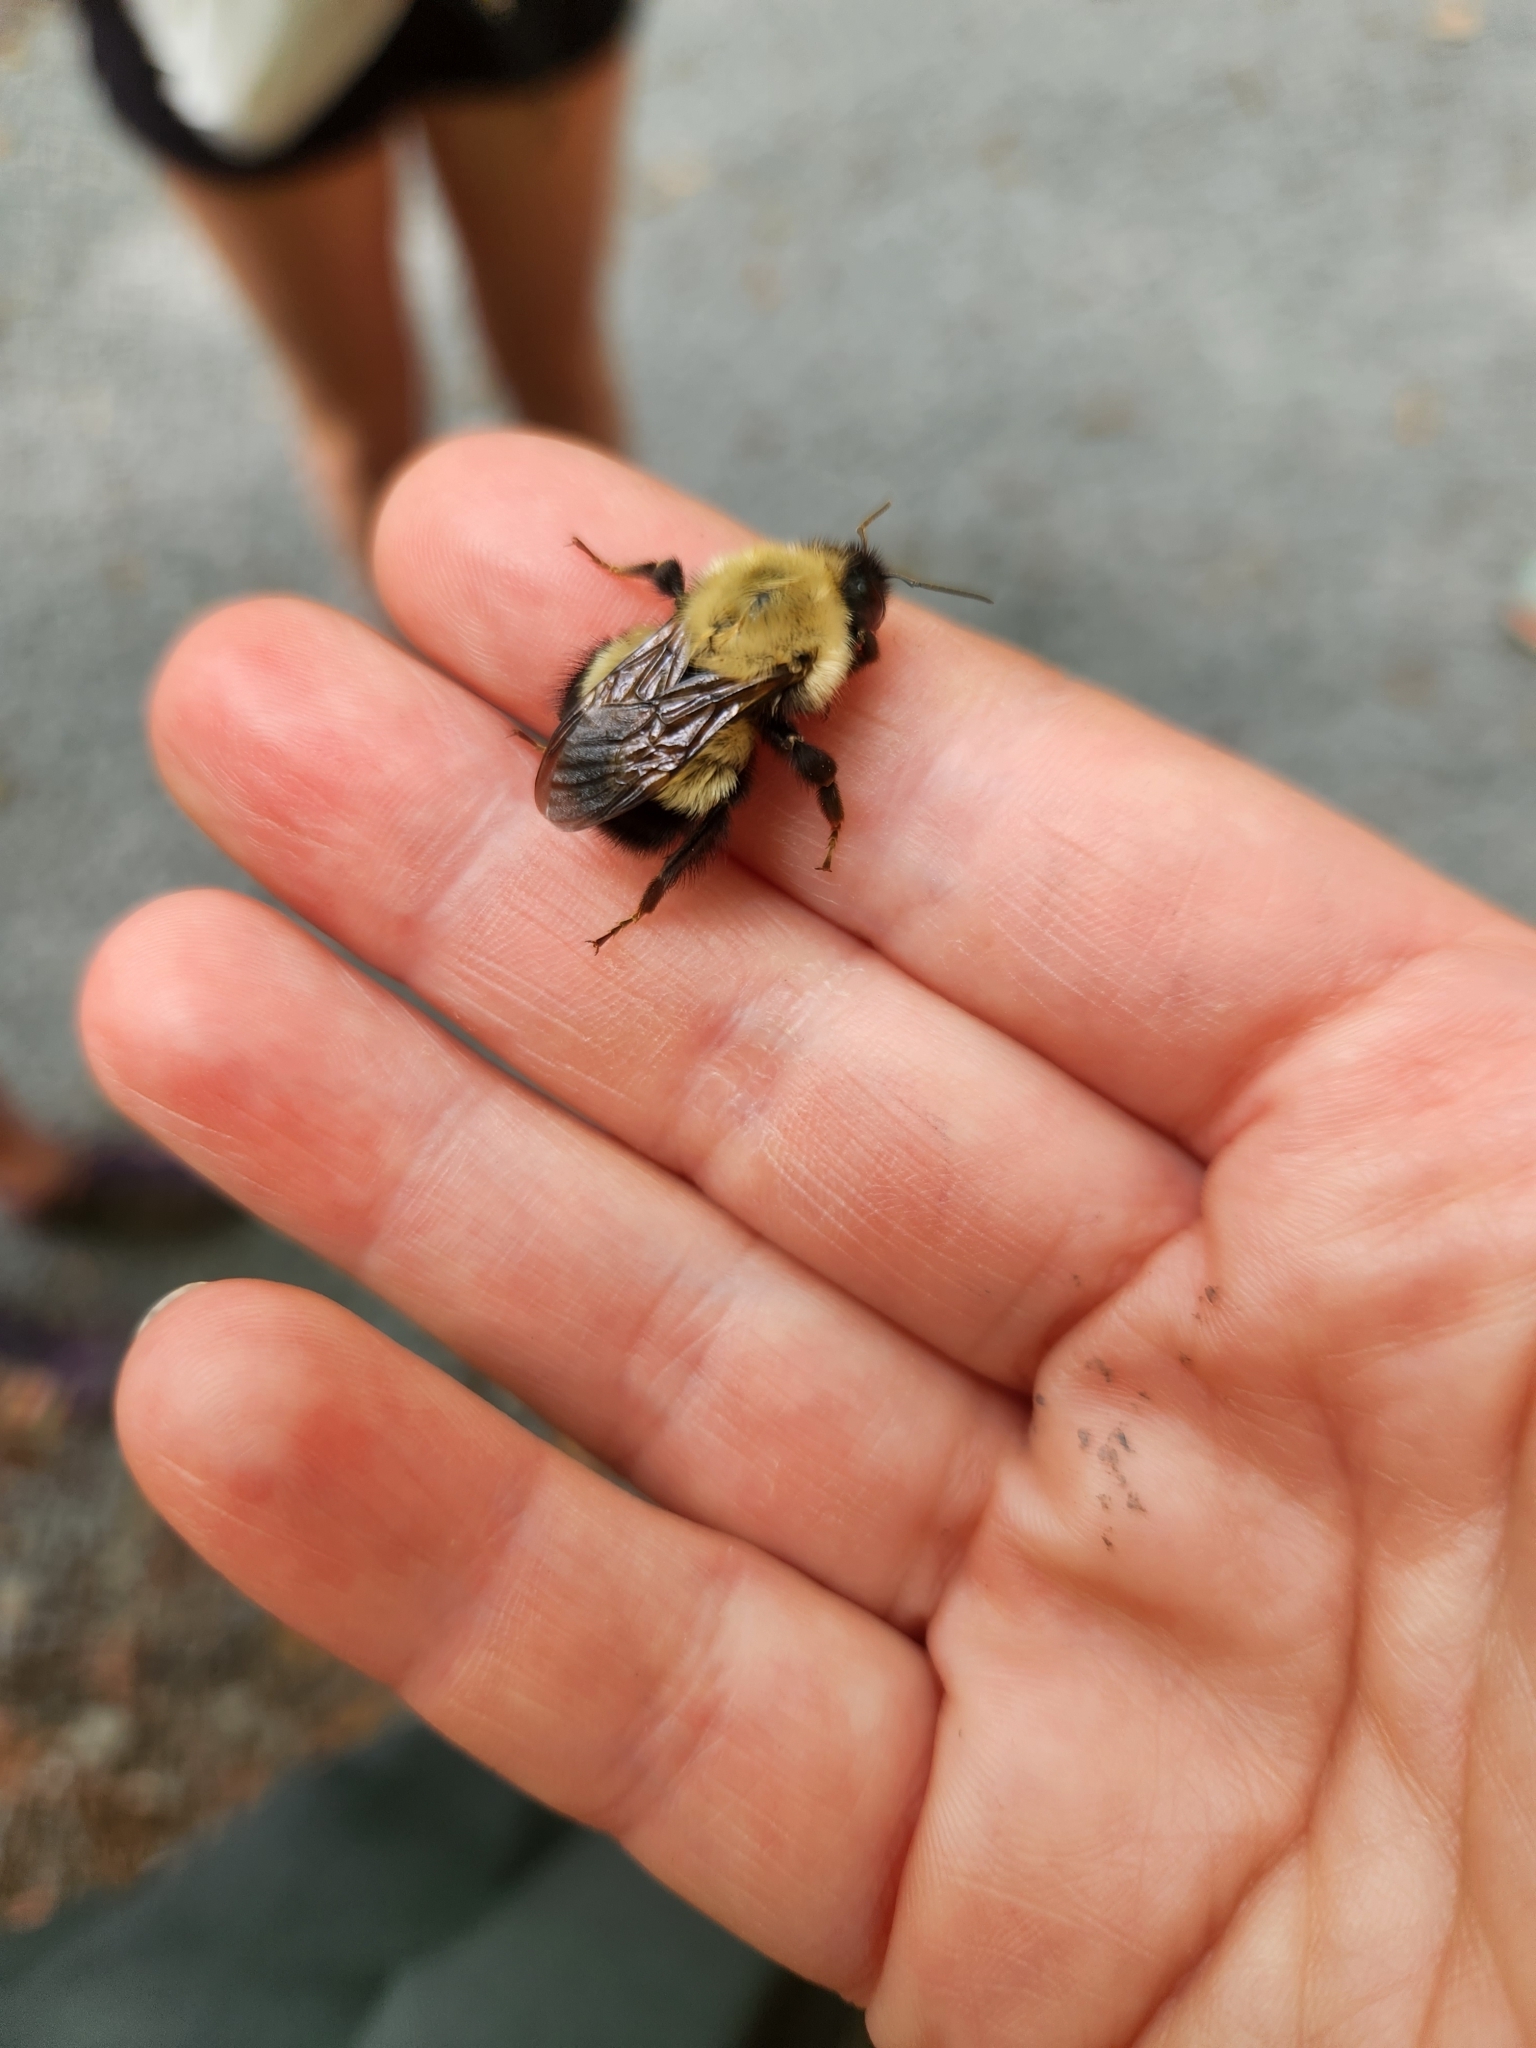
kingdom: Animalia
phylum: Arthropoda
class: Insecta
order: Hymenoptera
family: Apidae
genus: Bombus
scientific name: Bombus perplexus
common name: Confusing bumble bee
